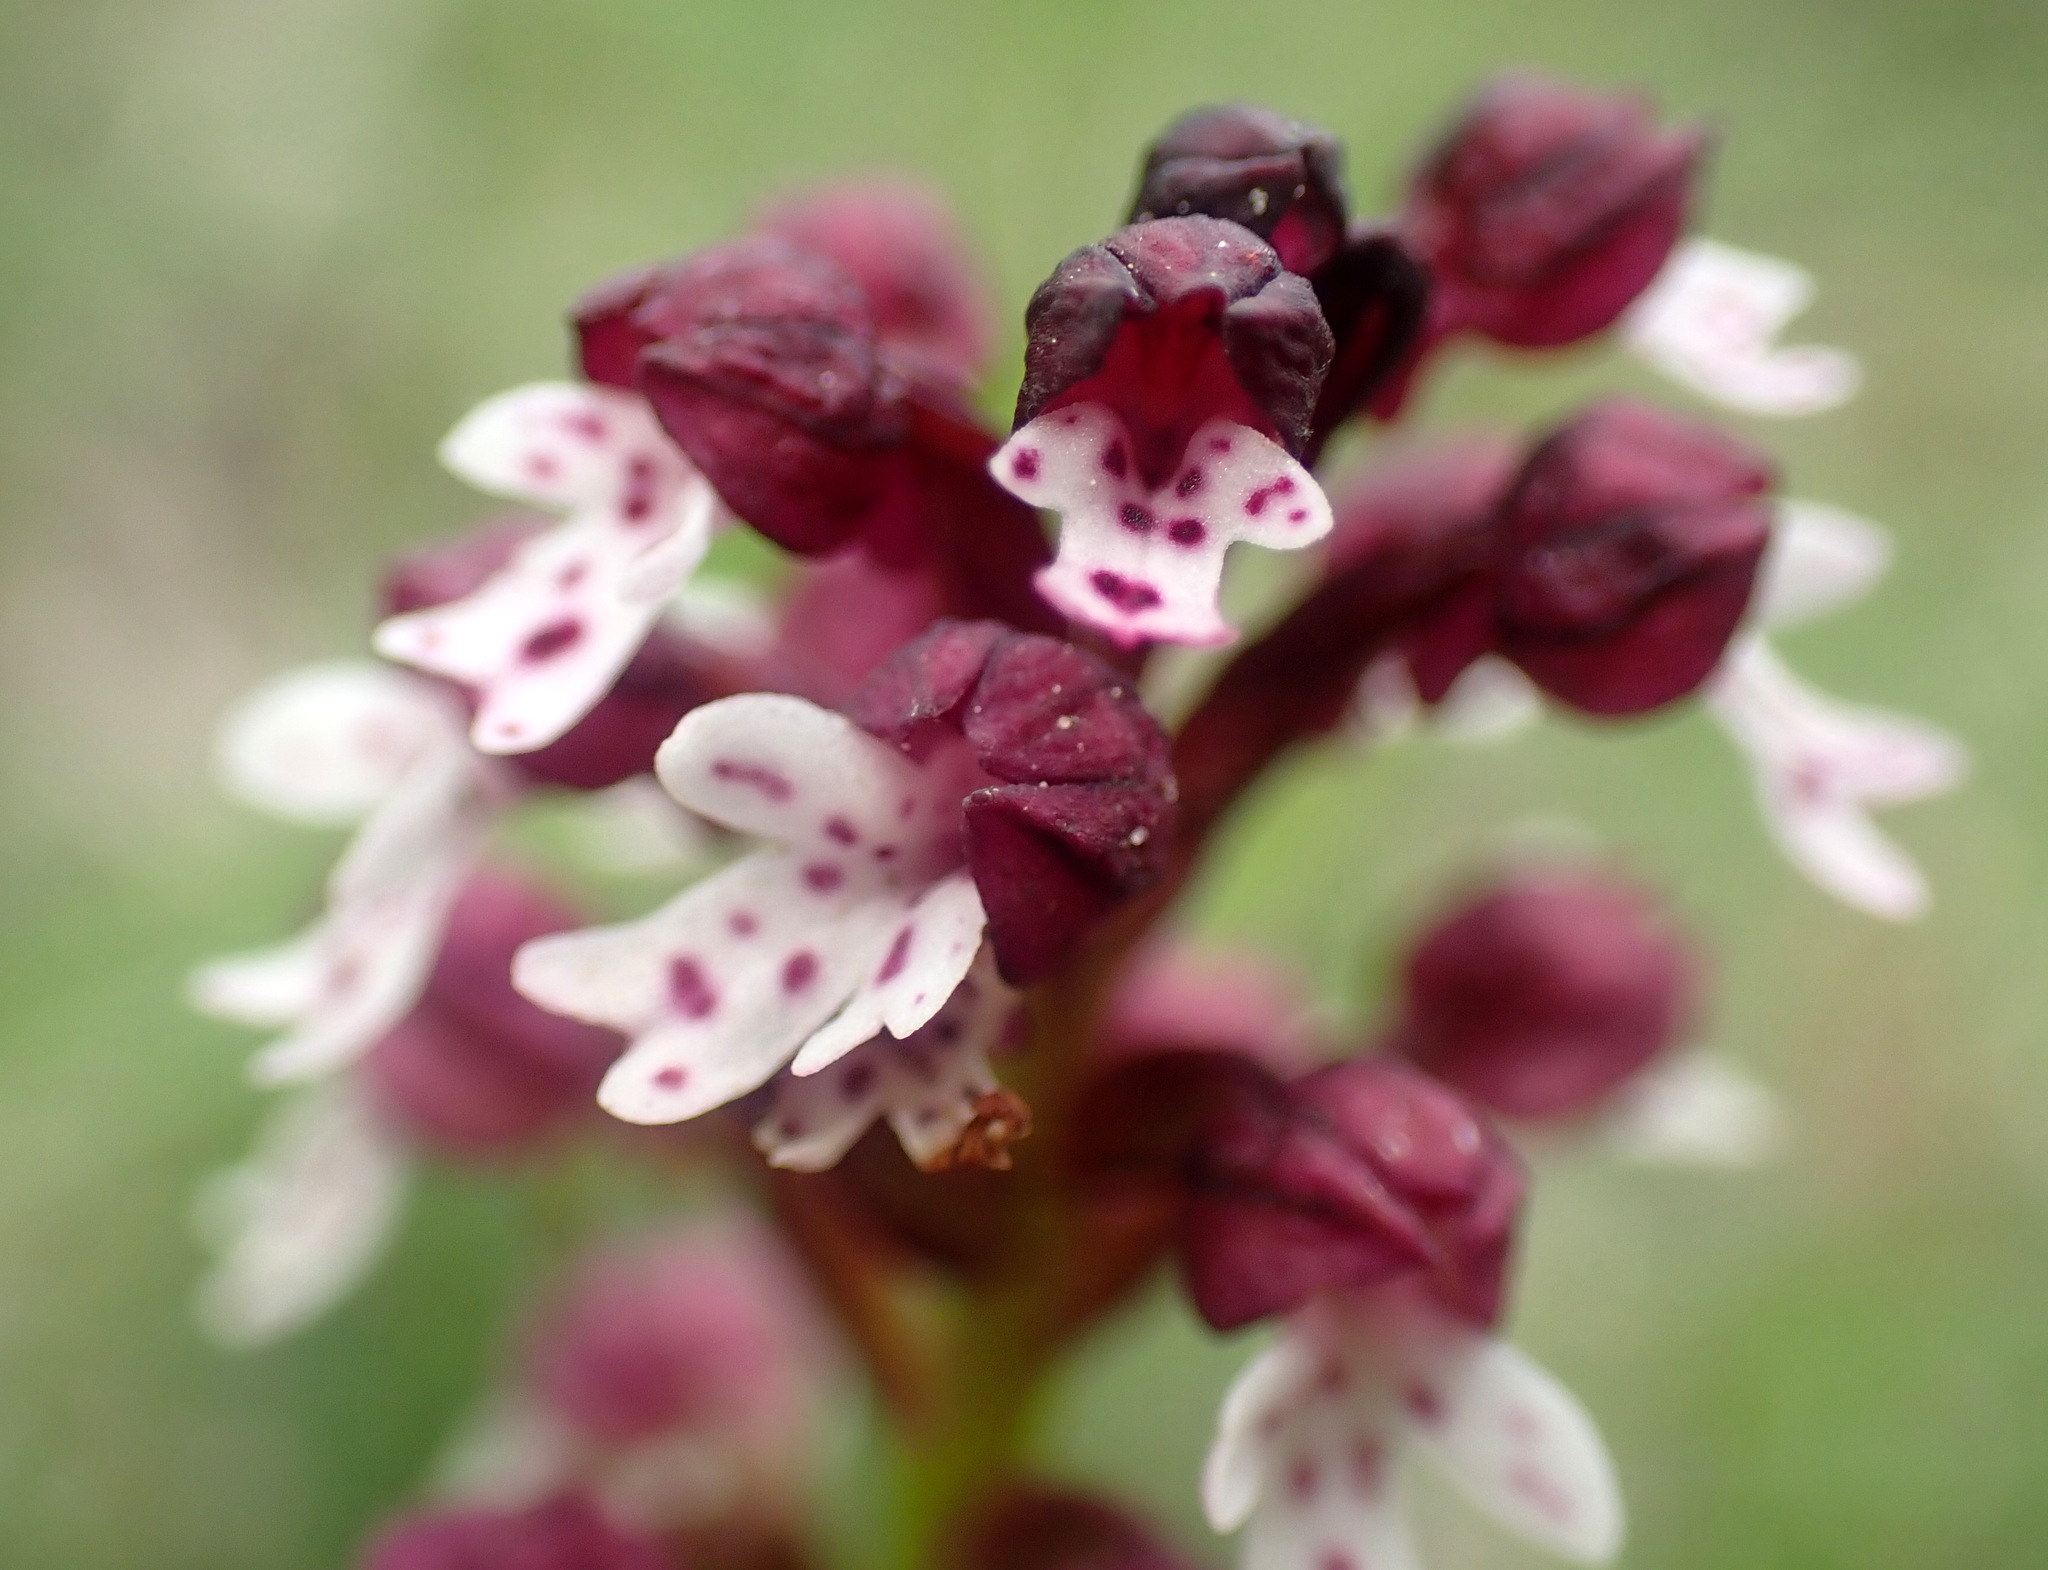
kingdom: Plantae
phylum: Tracheophyta
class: Liliopsida
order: Asparagales
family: Orchidaceae
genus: Neotinea
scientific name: Neotinea ustulata
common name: Burnt orchid
